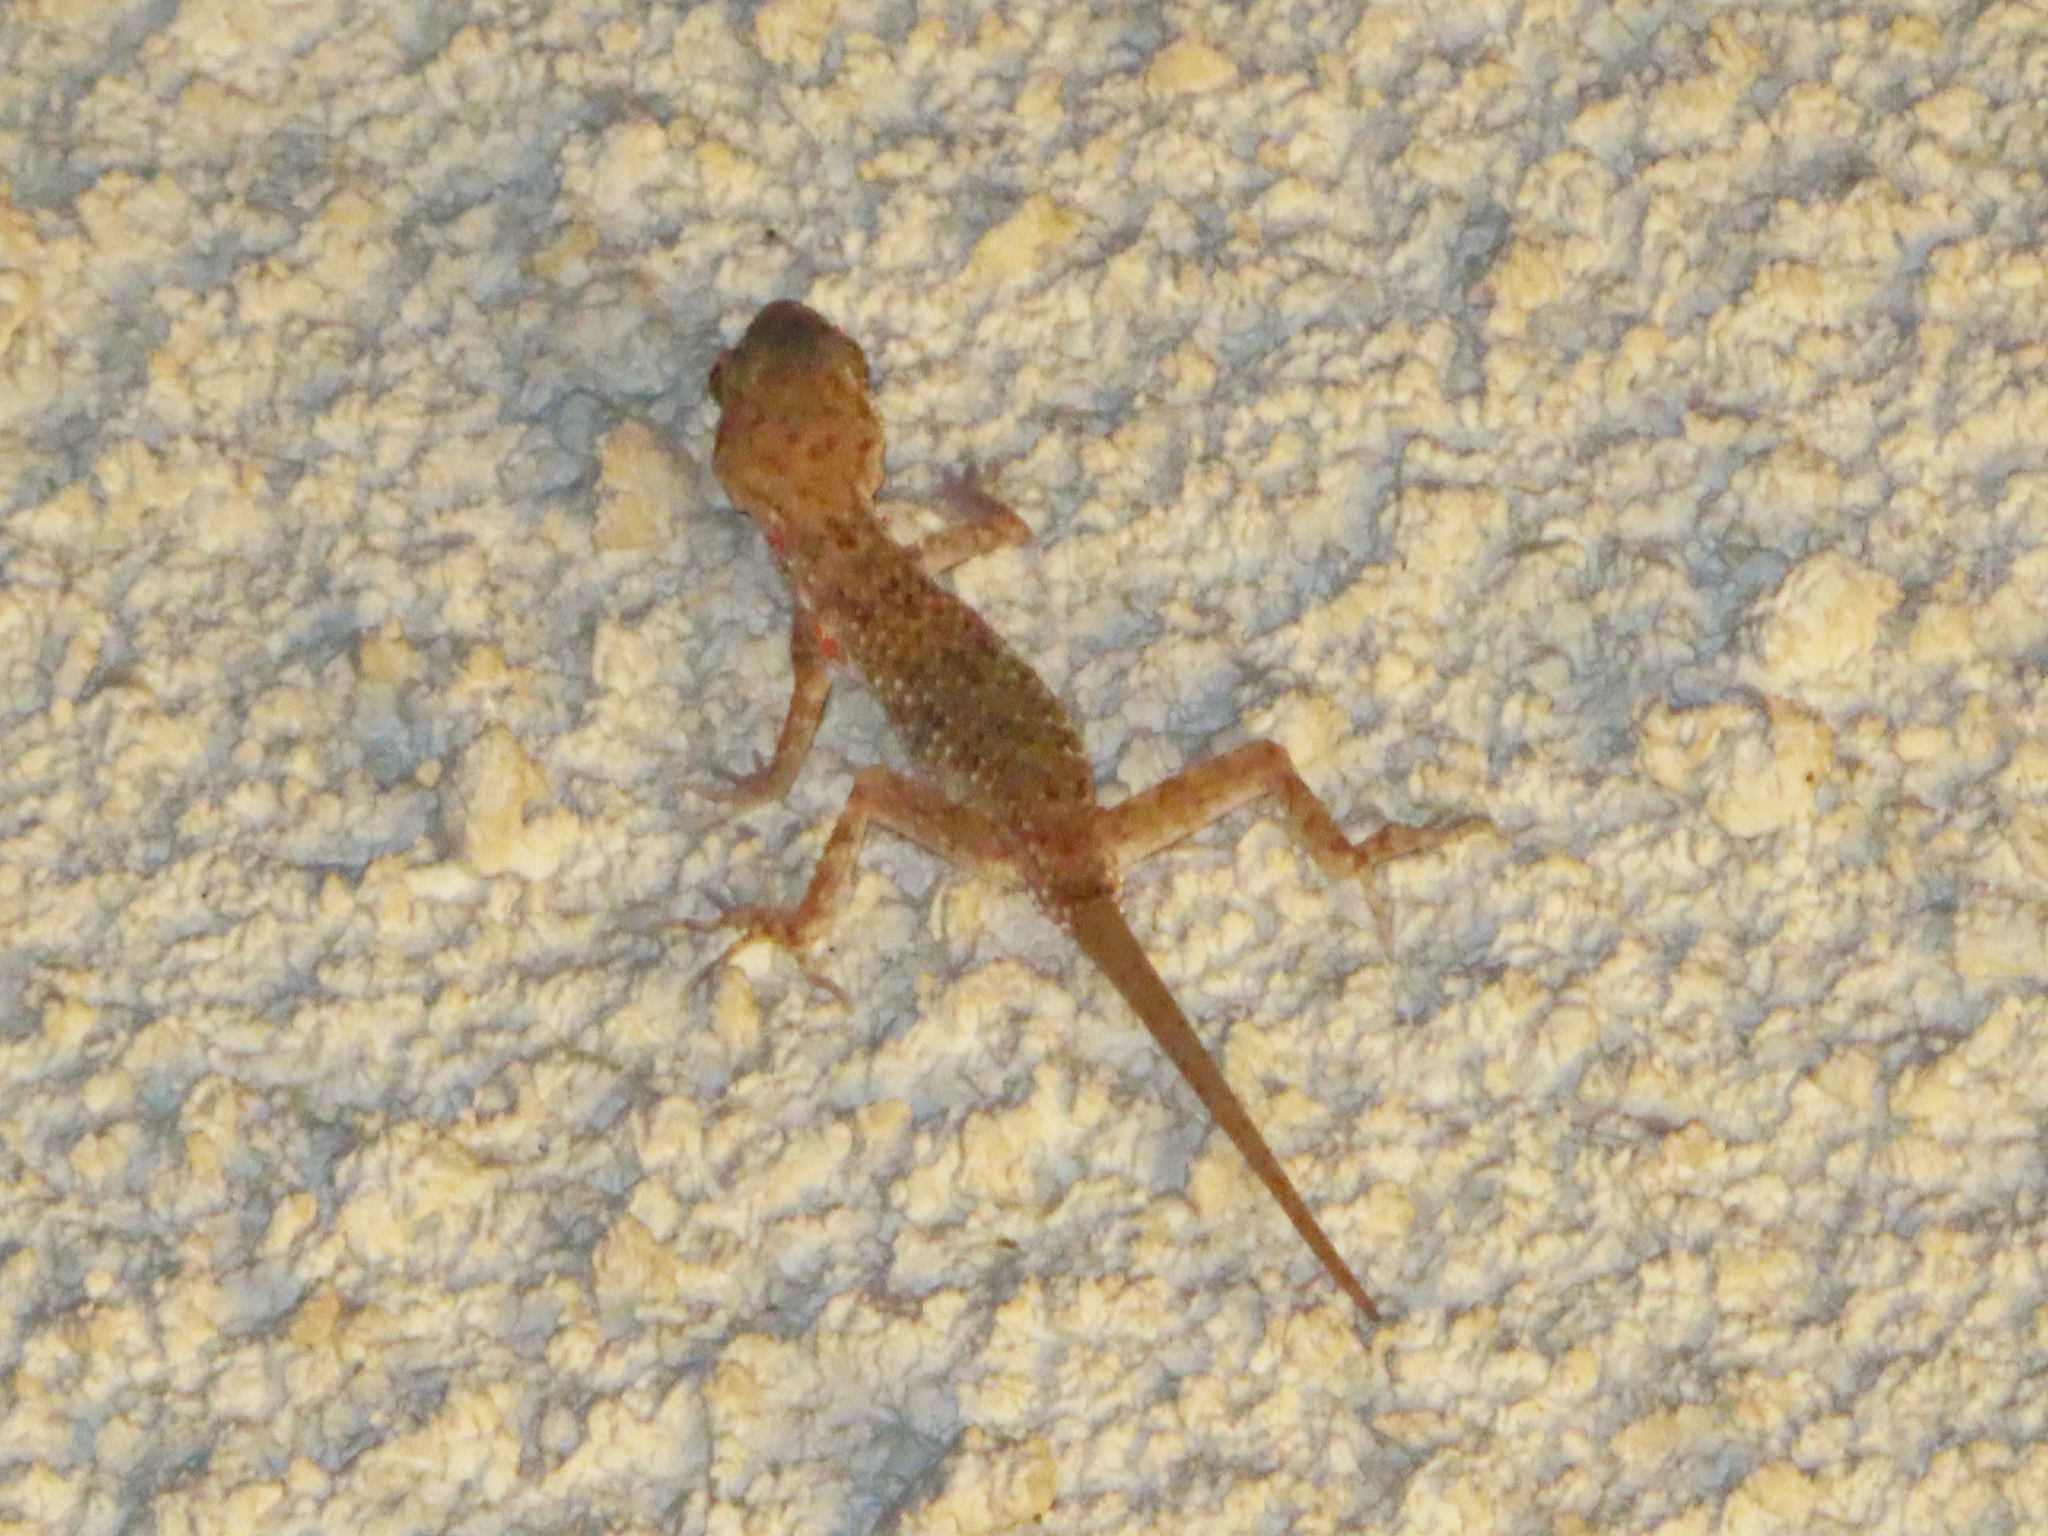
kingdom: Animalia
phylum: Chordata
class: Squamata
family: Gekkonidae
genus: Cyrtopodion
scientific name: Cyrtopodion scabrum
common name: Rough-tailed gecko
